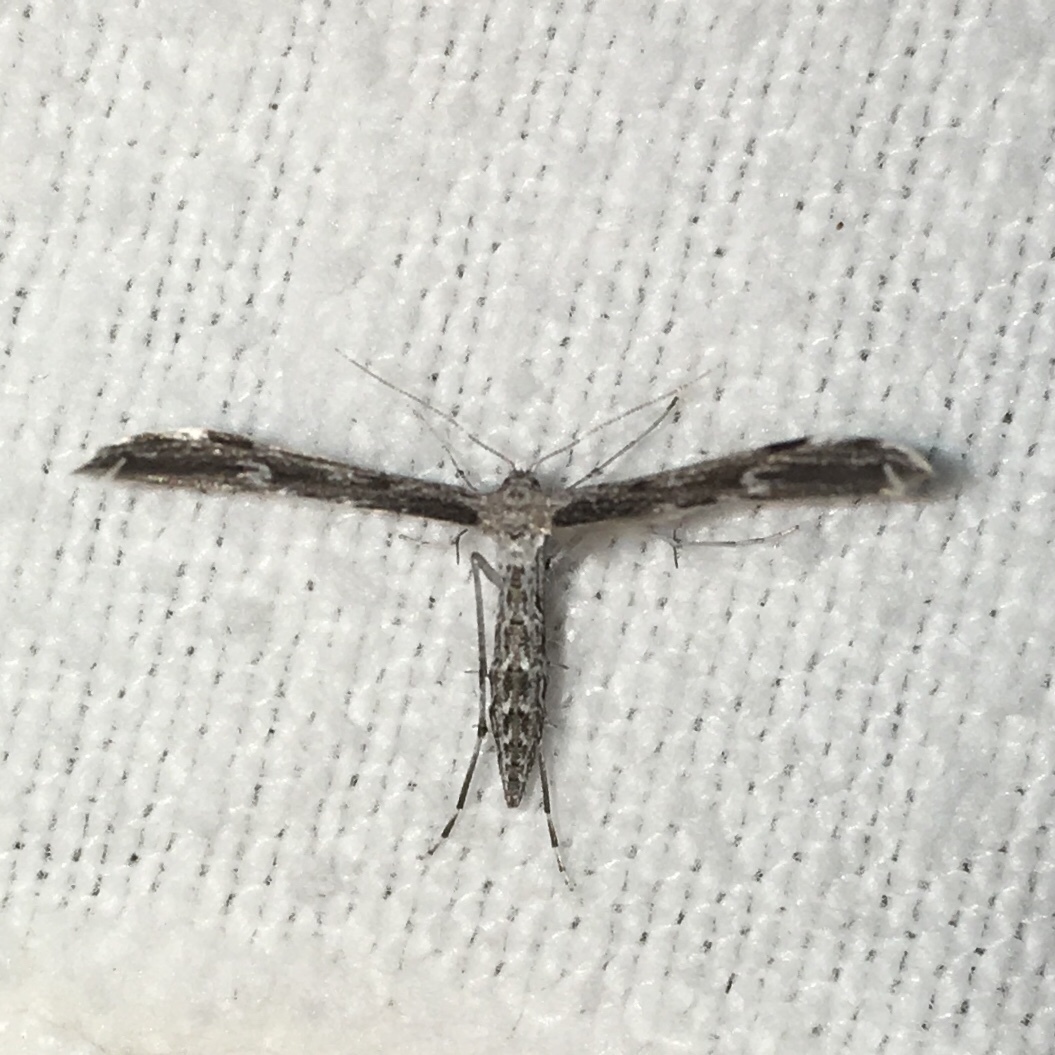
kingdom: Animalia
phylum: Arthropoda
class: Insecta
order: Lepidoptera
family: Pterophoridae
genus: Hellinsia
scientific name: Hellinsia inquinatus
